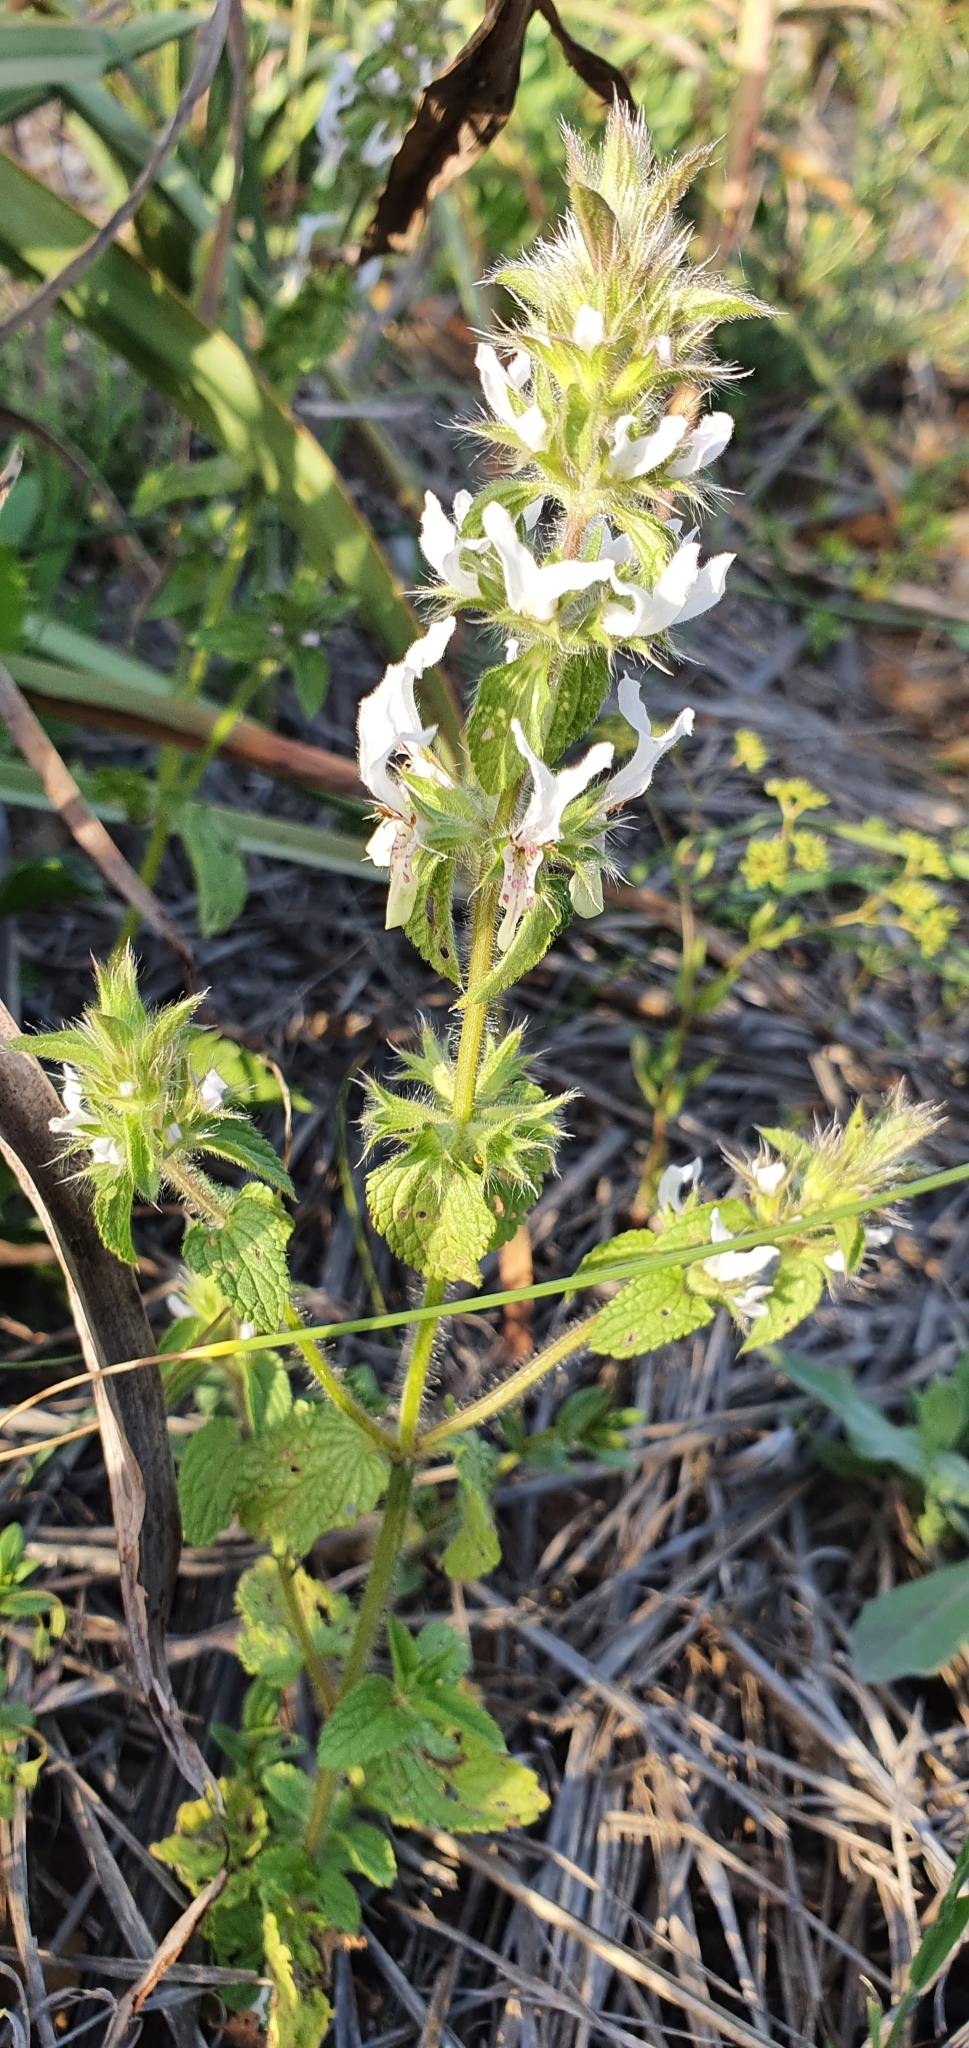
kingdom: Plantae
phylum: Tracheophyta
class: Magnoliopsida
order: Lamiales
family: Lamiaceae
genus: Stachys
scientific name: Stachys ocymastrum
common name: Italian hedgenettle
